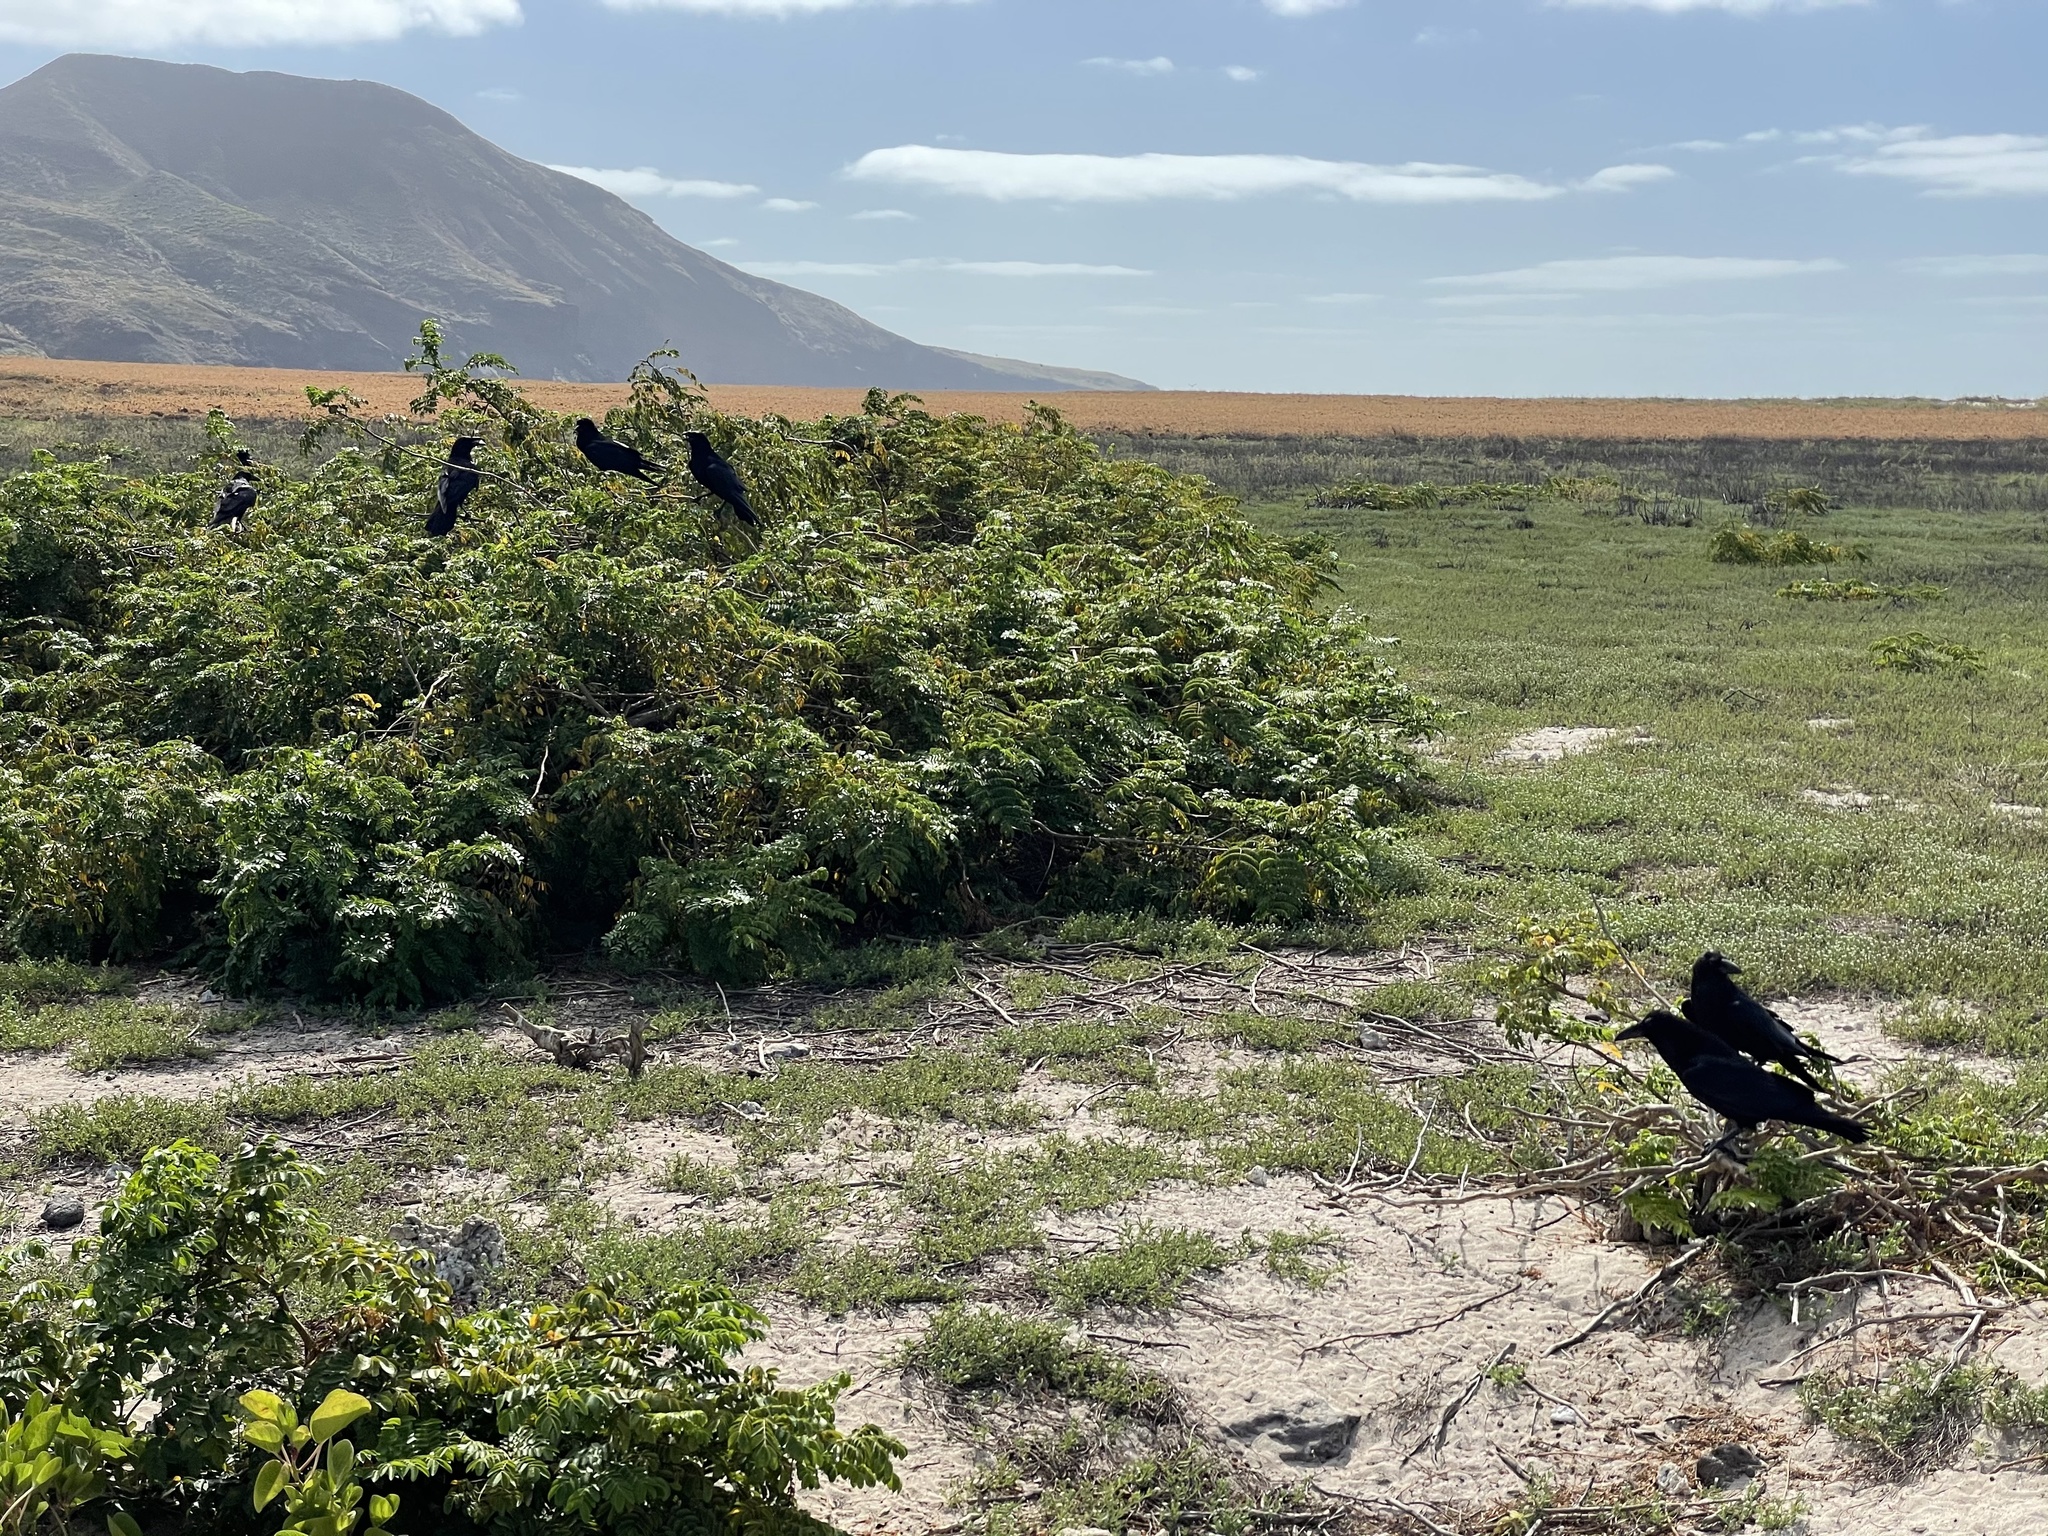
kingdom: Animalia
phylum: Chordata
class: Aves
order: Passeriformes
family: Corvidae
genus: Corvus
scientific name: Corvus corax
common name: Common raven
